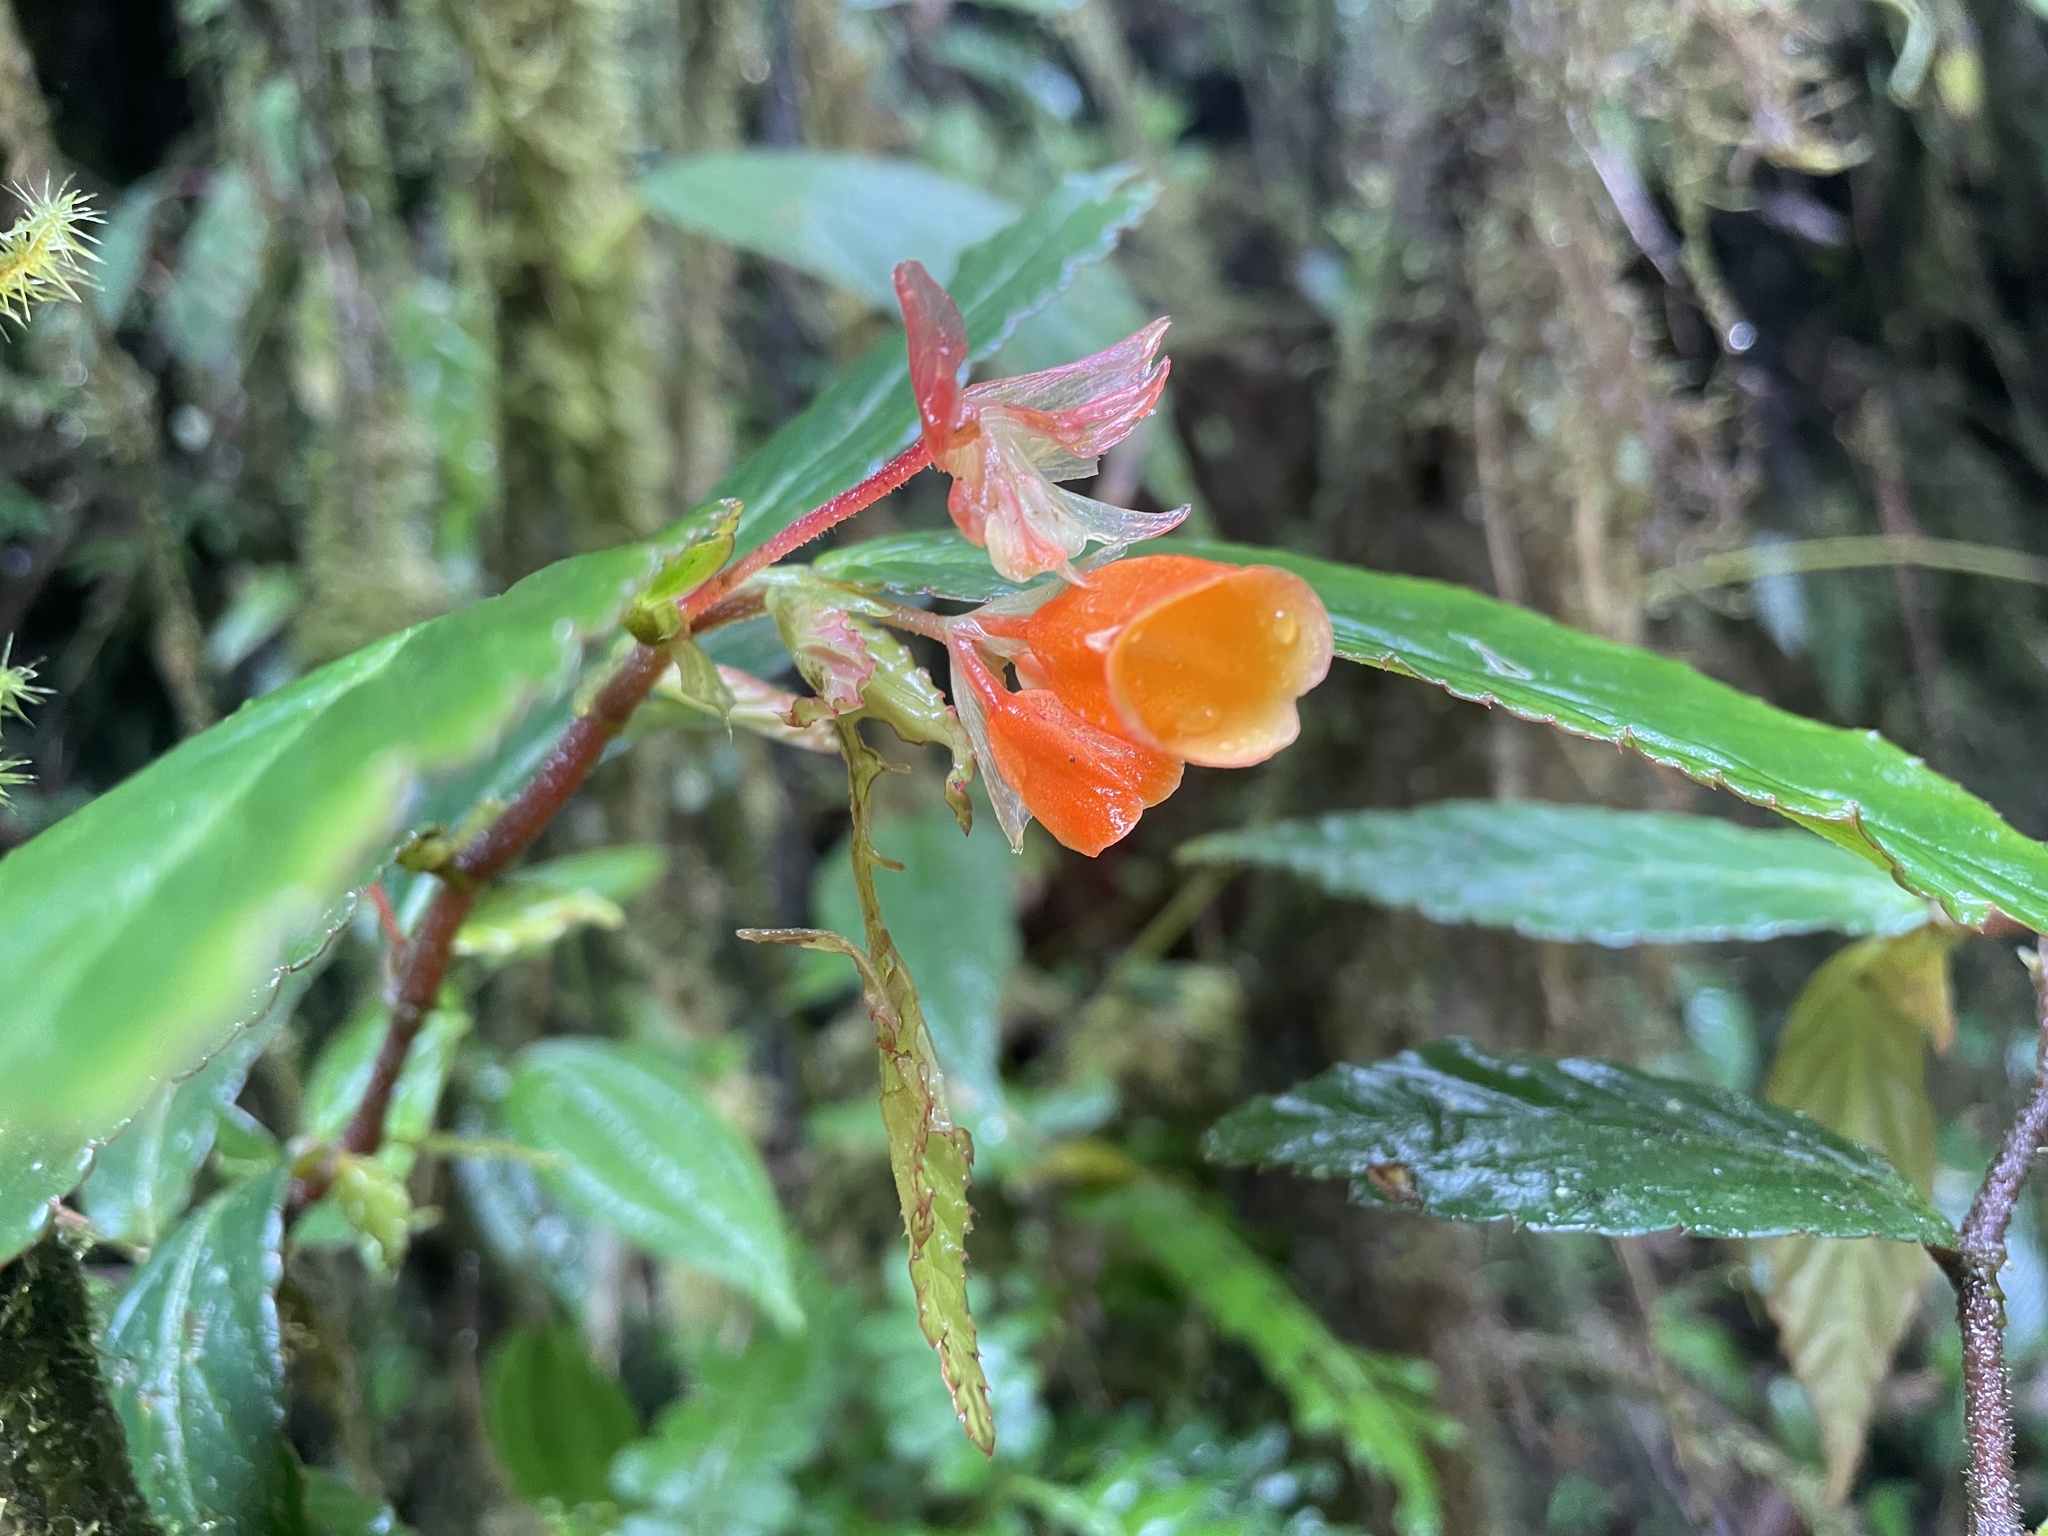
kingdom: Plantae
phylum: Tracheophyta
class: Magnoliopsida
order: Cucurbitales
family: Begoniaceae
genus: Begonia
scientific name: Begonia silverstonei
